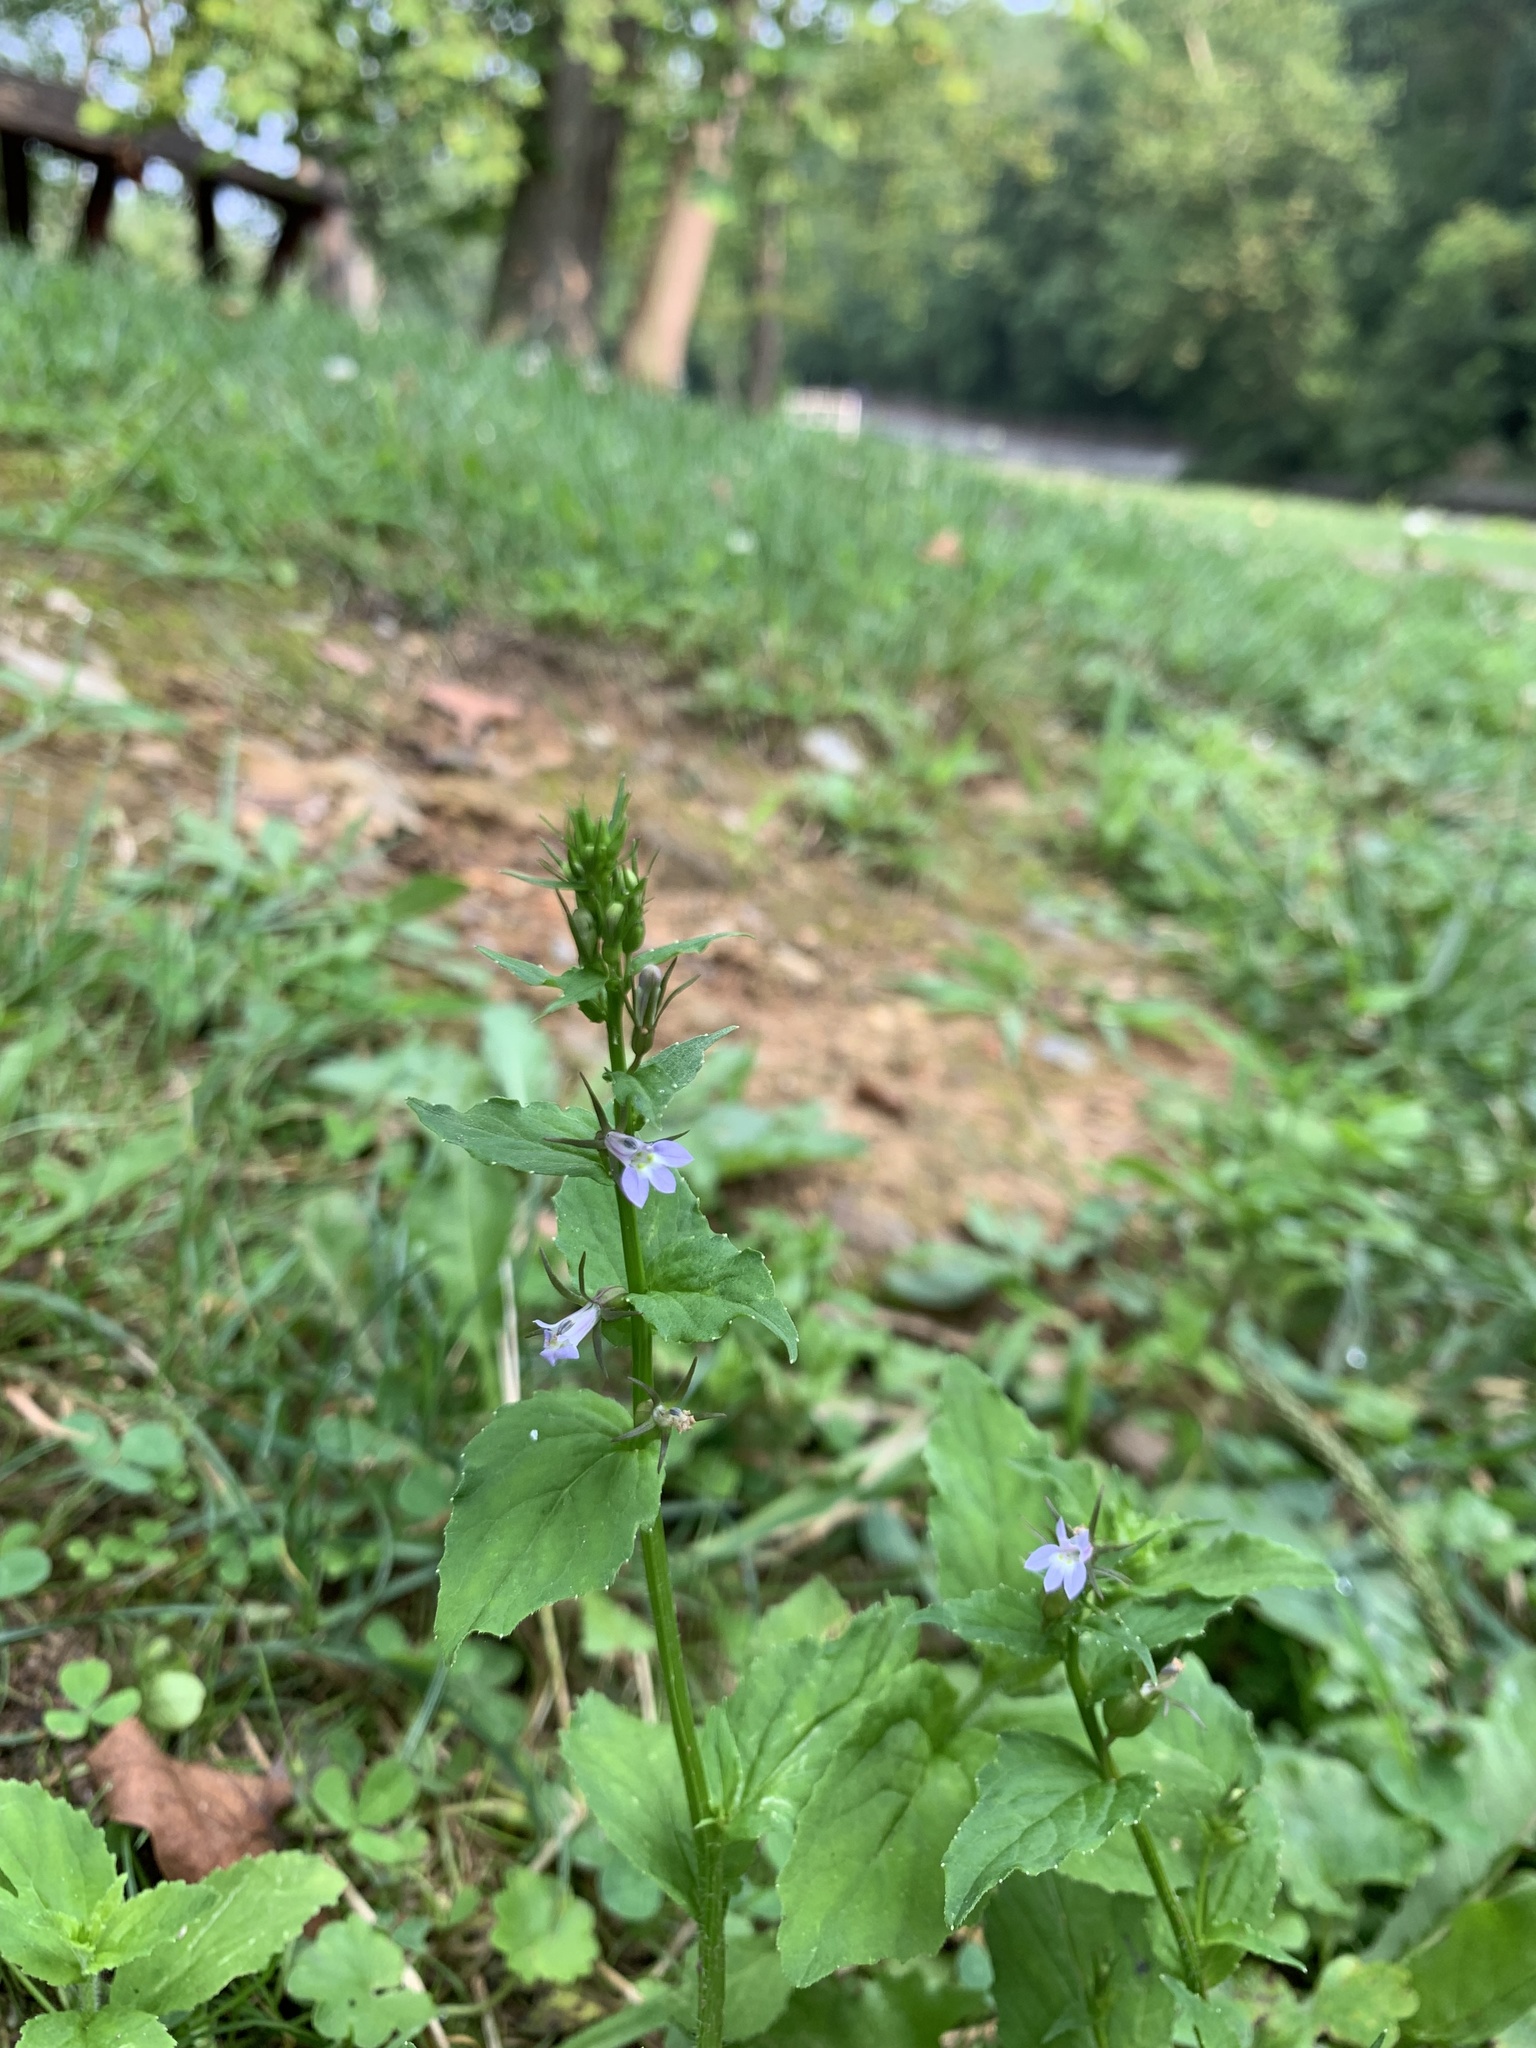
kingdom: Plantae
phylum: Tracheophyta
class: Magnoliopsida
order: Asterales
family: Campanulaceae
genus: Lobelia
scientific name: Lobelia inflata
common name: Indian tobacco
